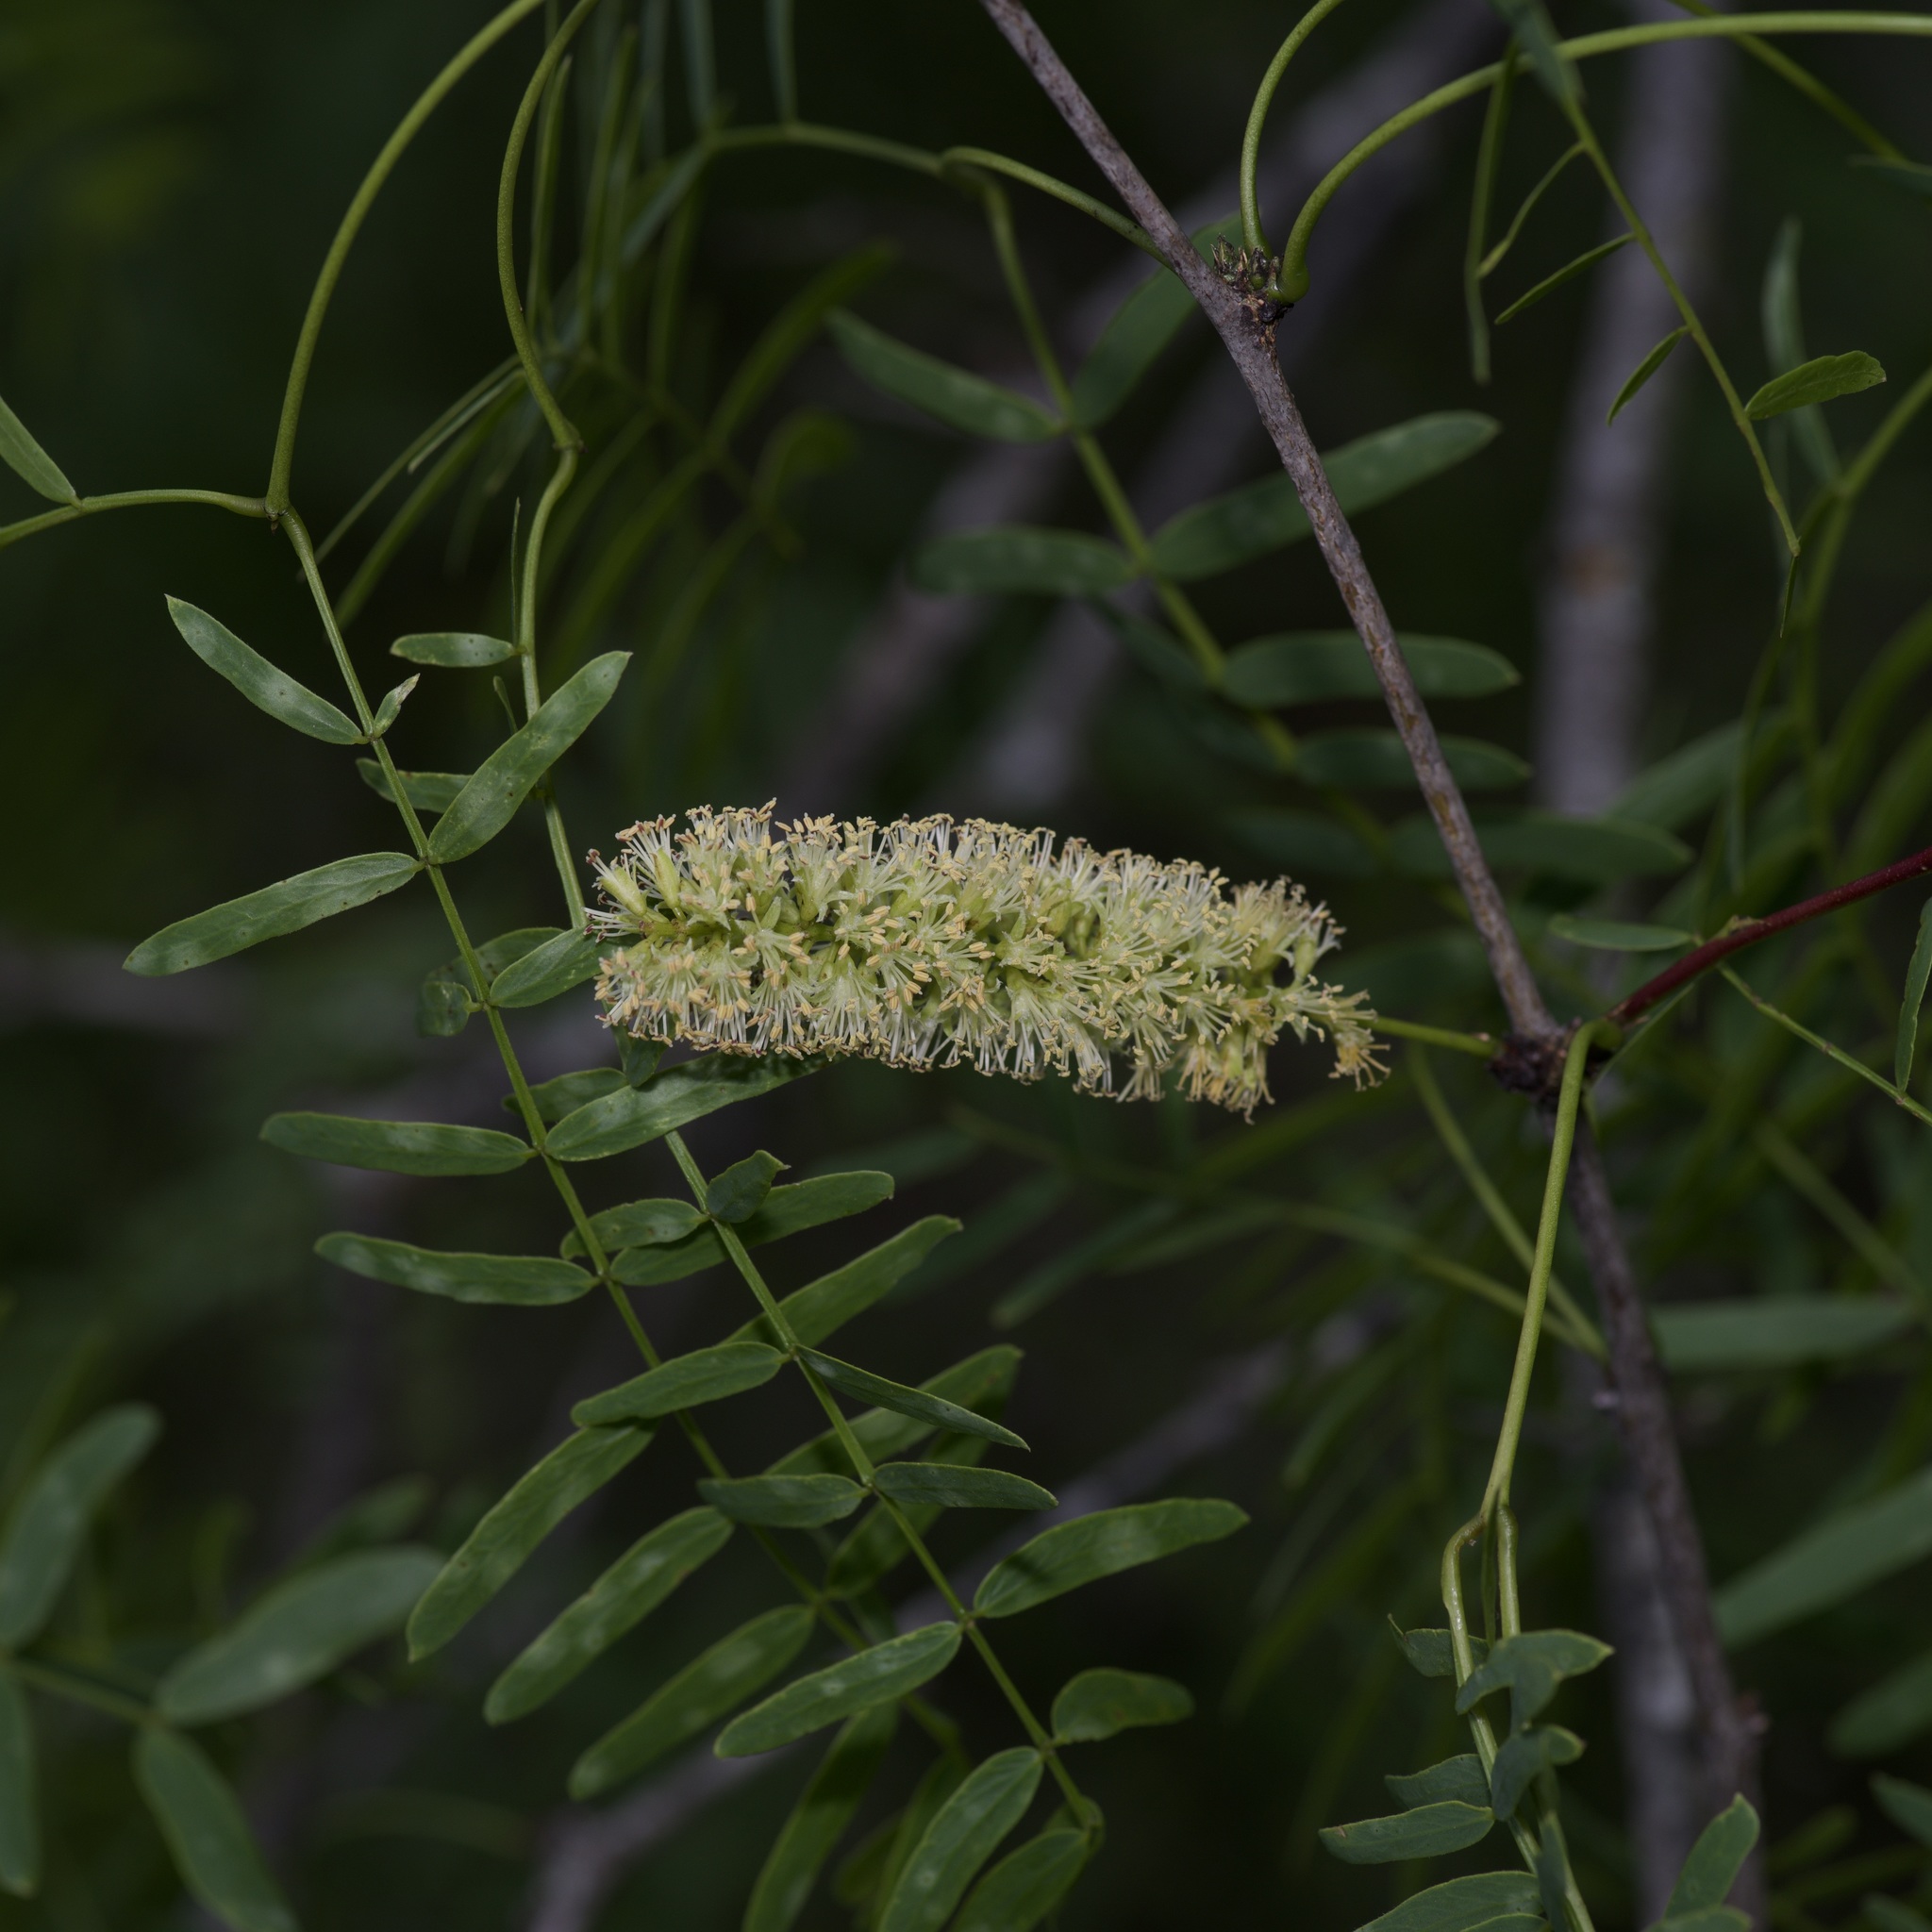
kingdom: Plantae
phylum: Tracheophyta
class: Magnoliopsida
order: Fabales
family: Fabaceae
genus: Prosopis
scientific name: Prosopis glandulosa
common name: Honey mesquite
